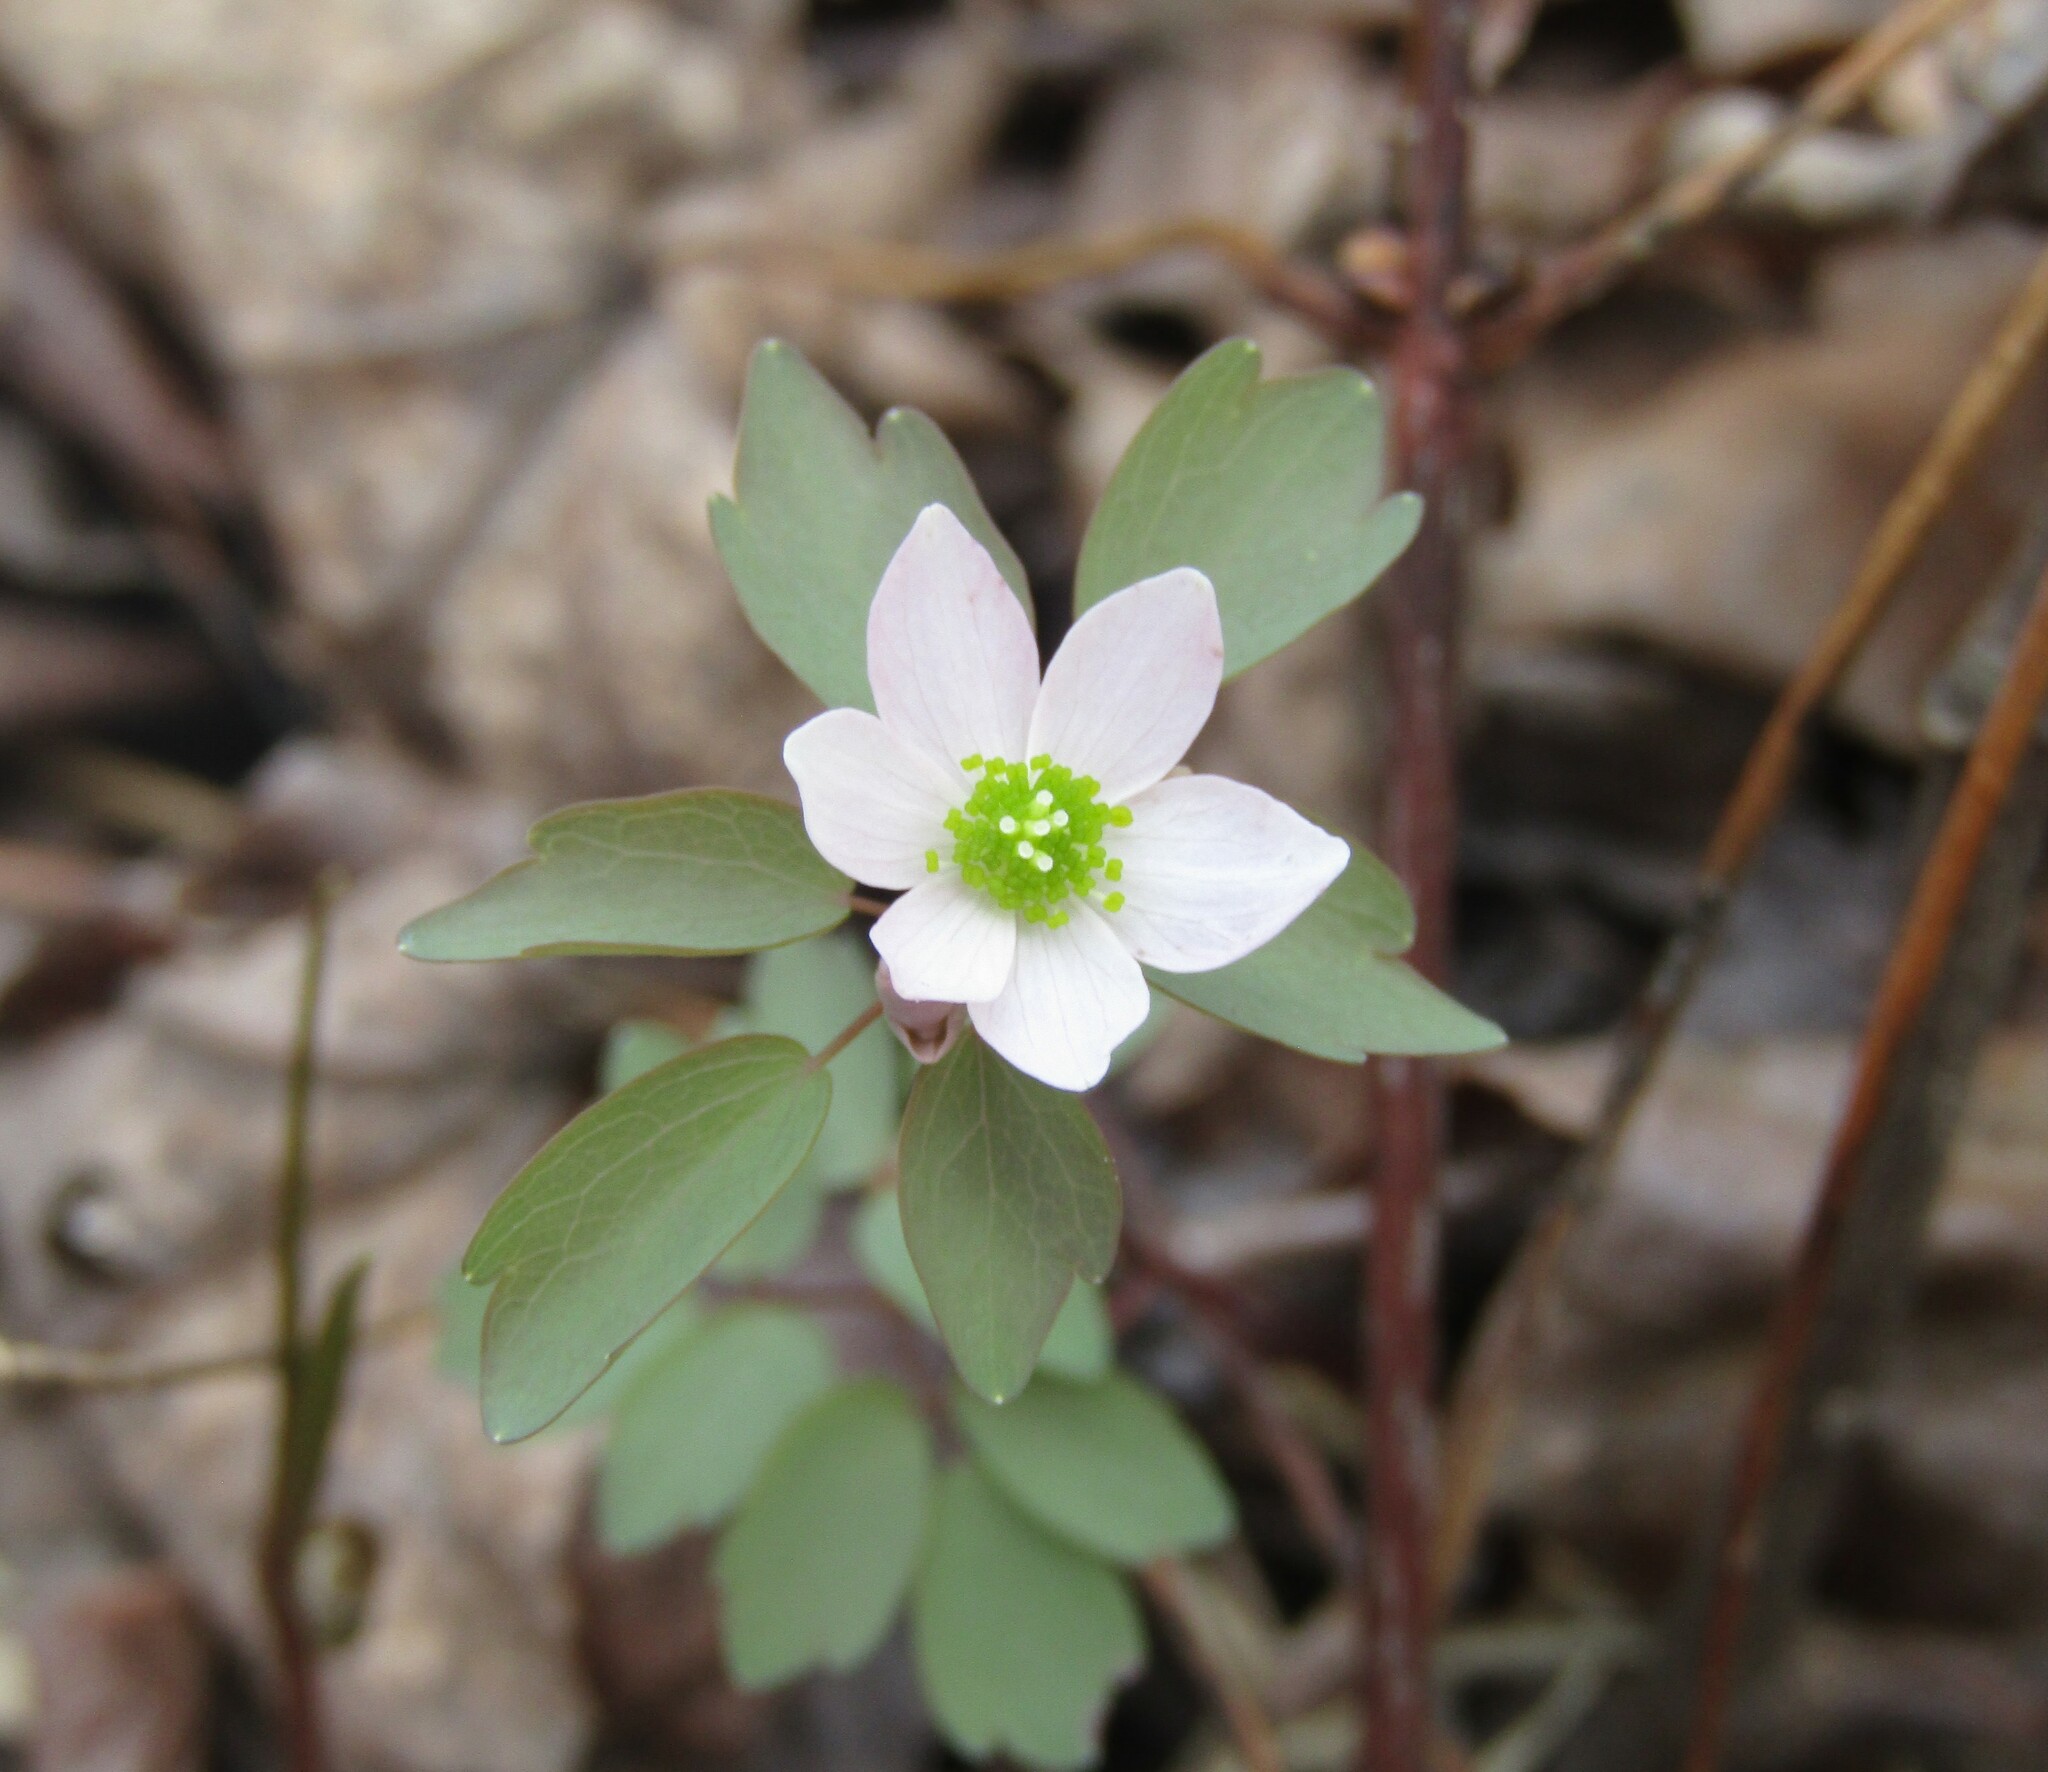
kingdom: Plantae
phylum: Tracheophyta
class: Magnoliopsida
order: Ranunculales
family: Ranunculaceae
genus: Thalictrum
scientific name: Thalictrum thalictroides
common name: Rue-anemone
